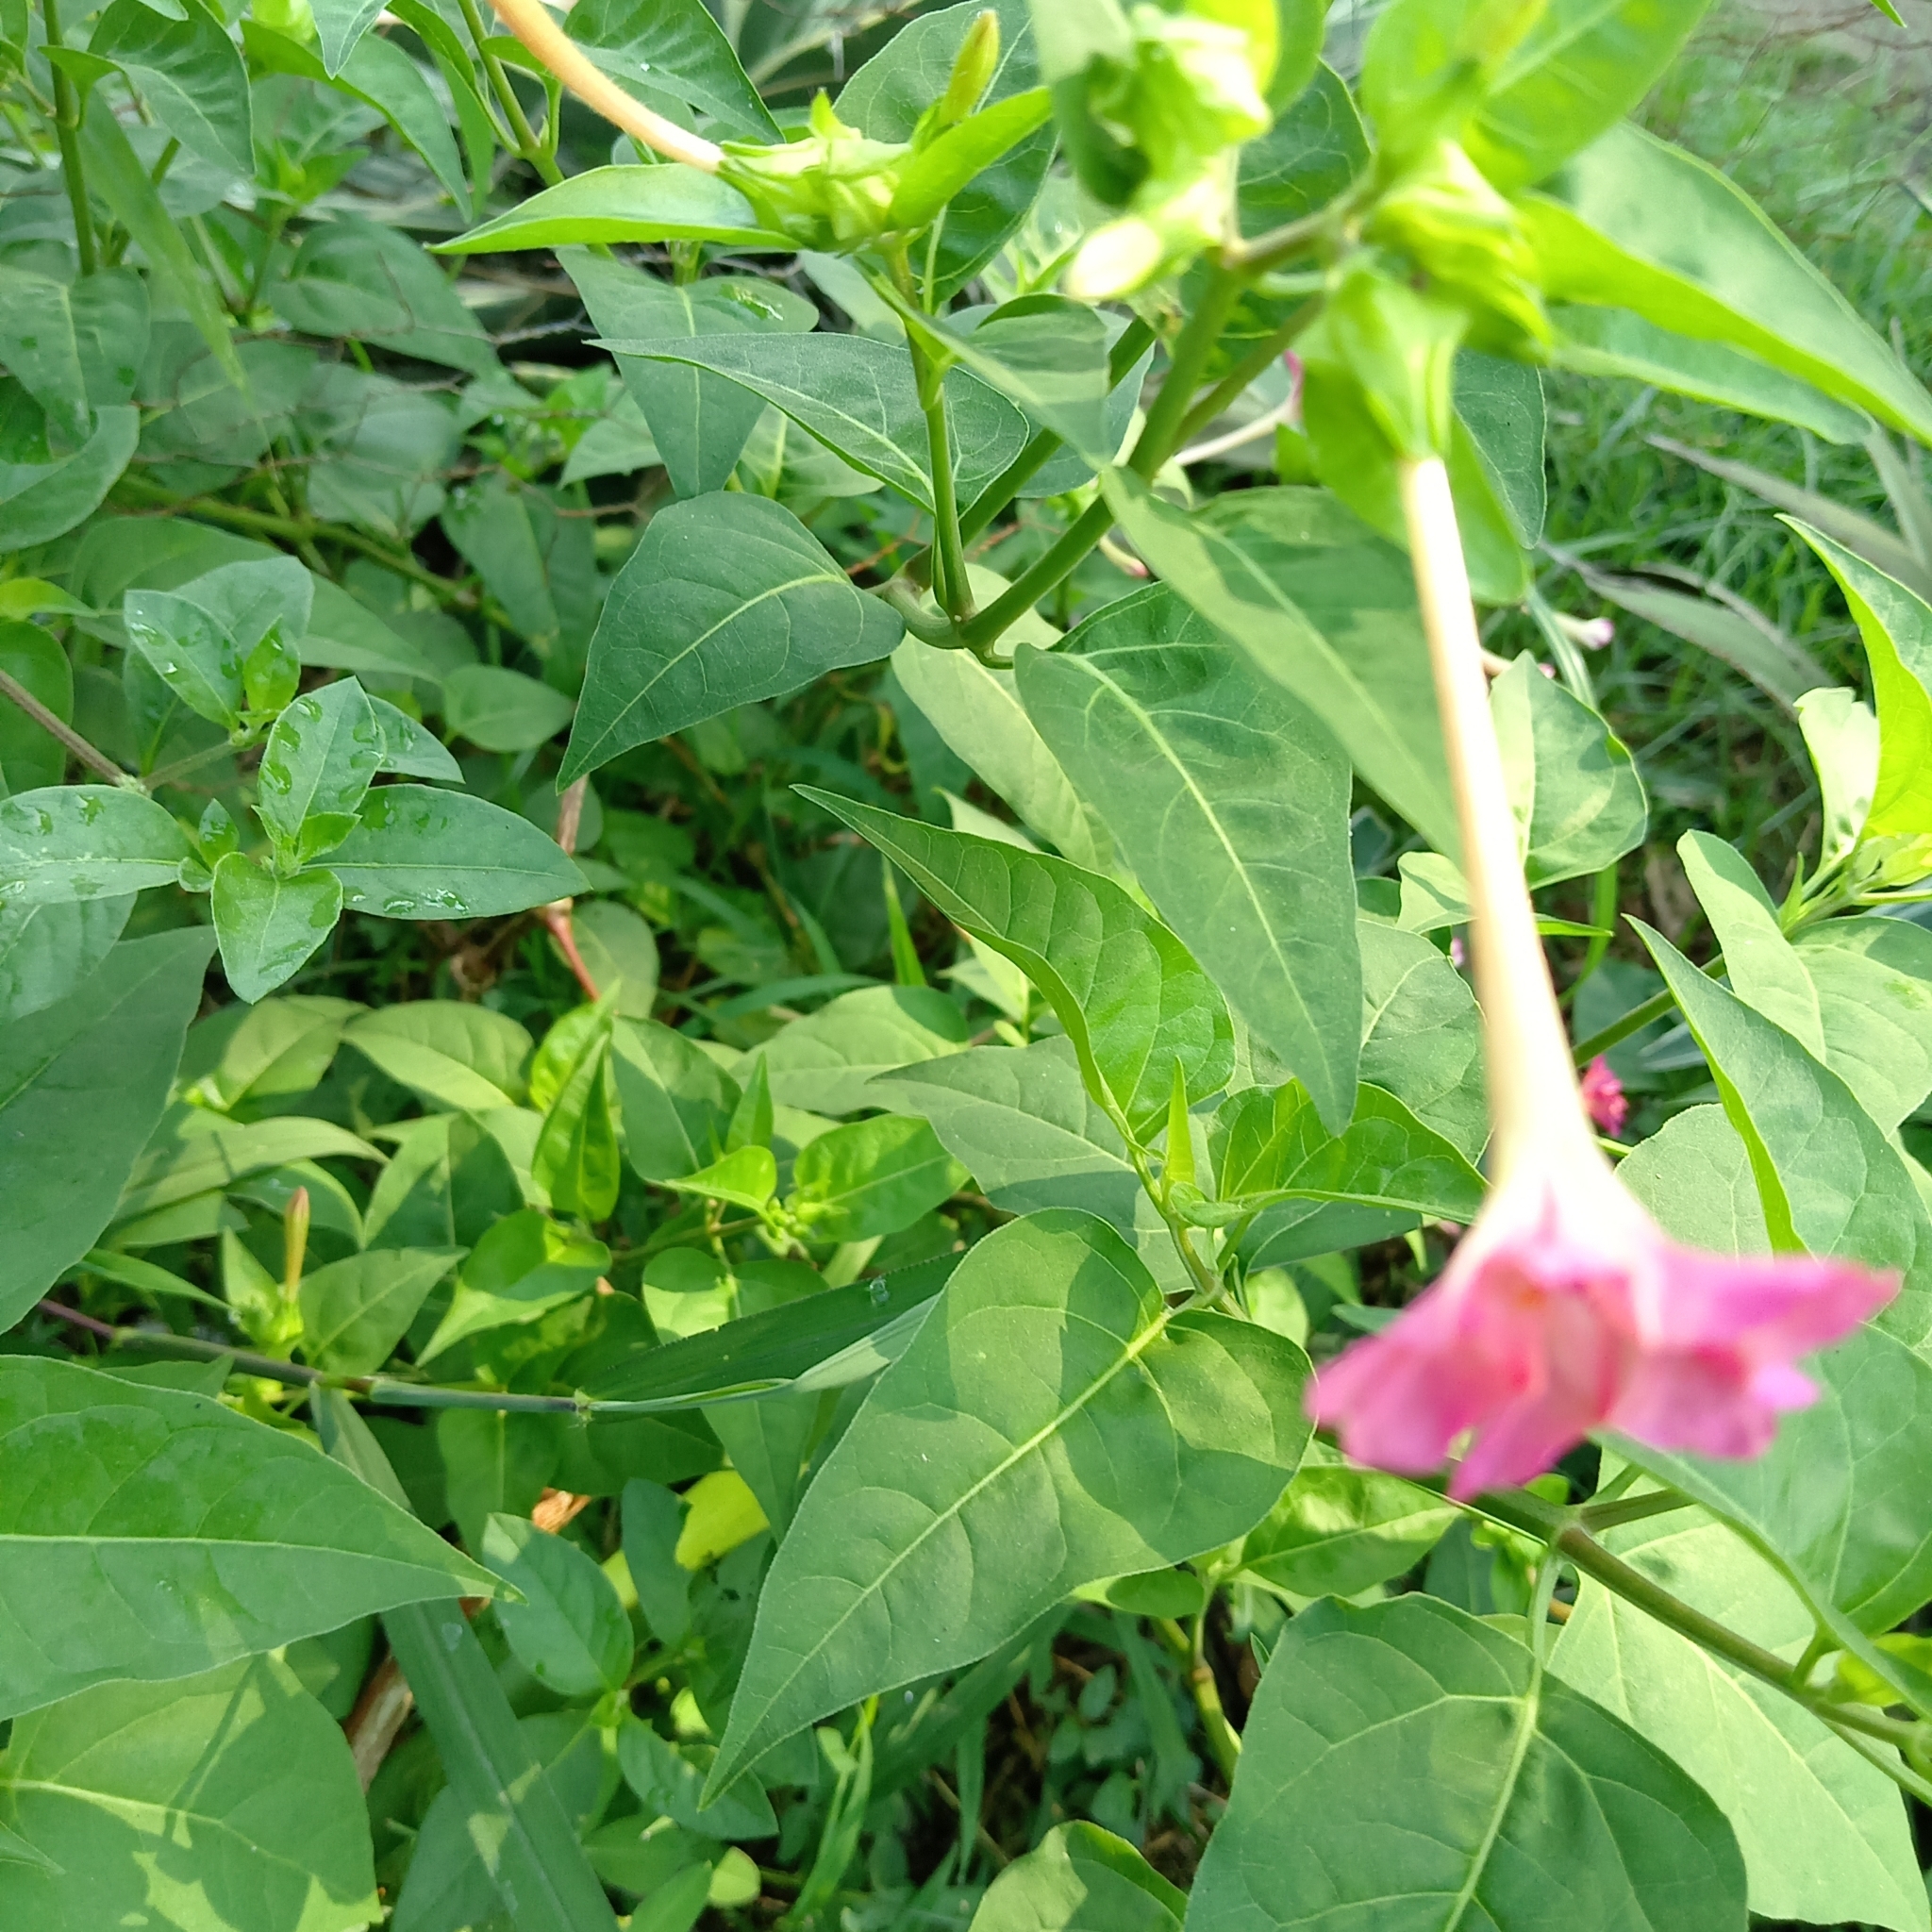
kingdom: Plantae
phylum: Tracheophyta
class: Magnoliopsida
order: Caryophyllales
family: Nyctaginaceae
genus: Mirabilis
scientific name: Mirabilis jalapa
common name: Marvel-of-peru
